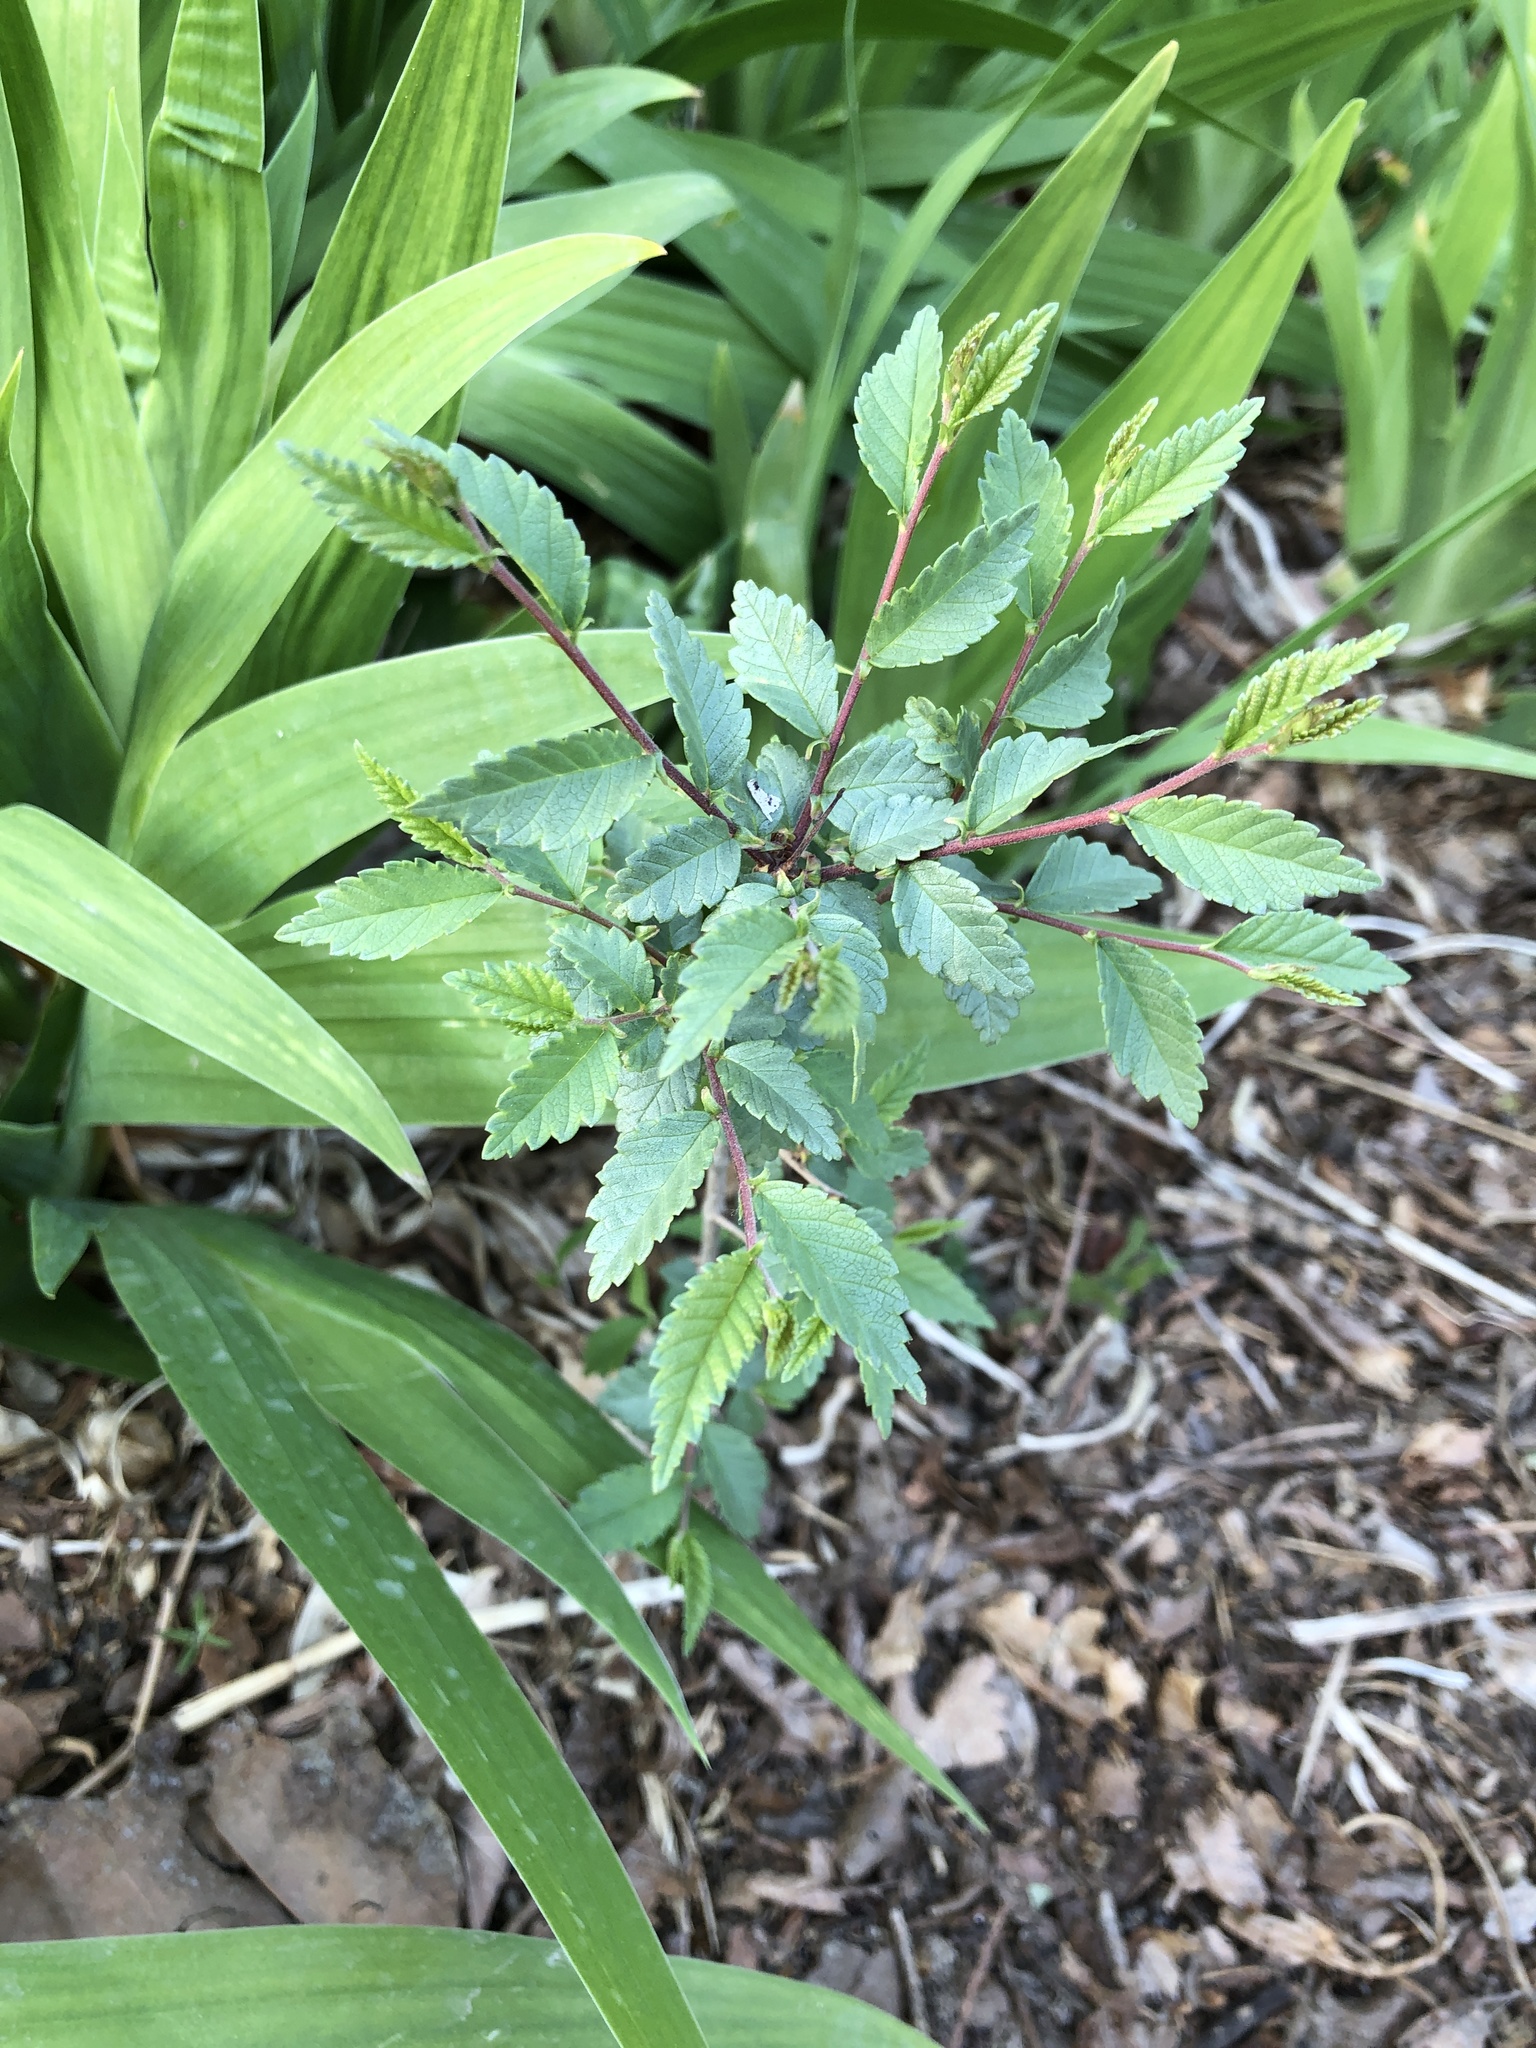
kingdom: Plantae
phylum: Tracheophyta
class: Magnoliopsida
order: Rosales
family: Ulmaceae
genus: Ulmus
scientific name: Ulmus pumila
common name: Siberian elm
